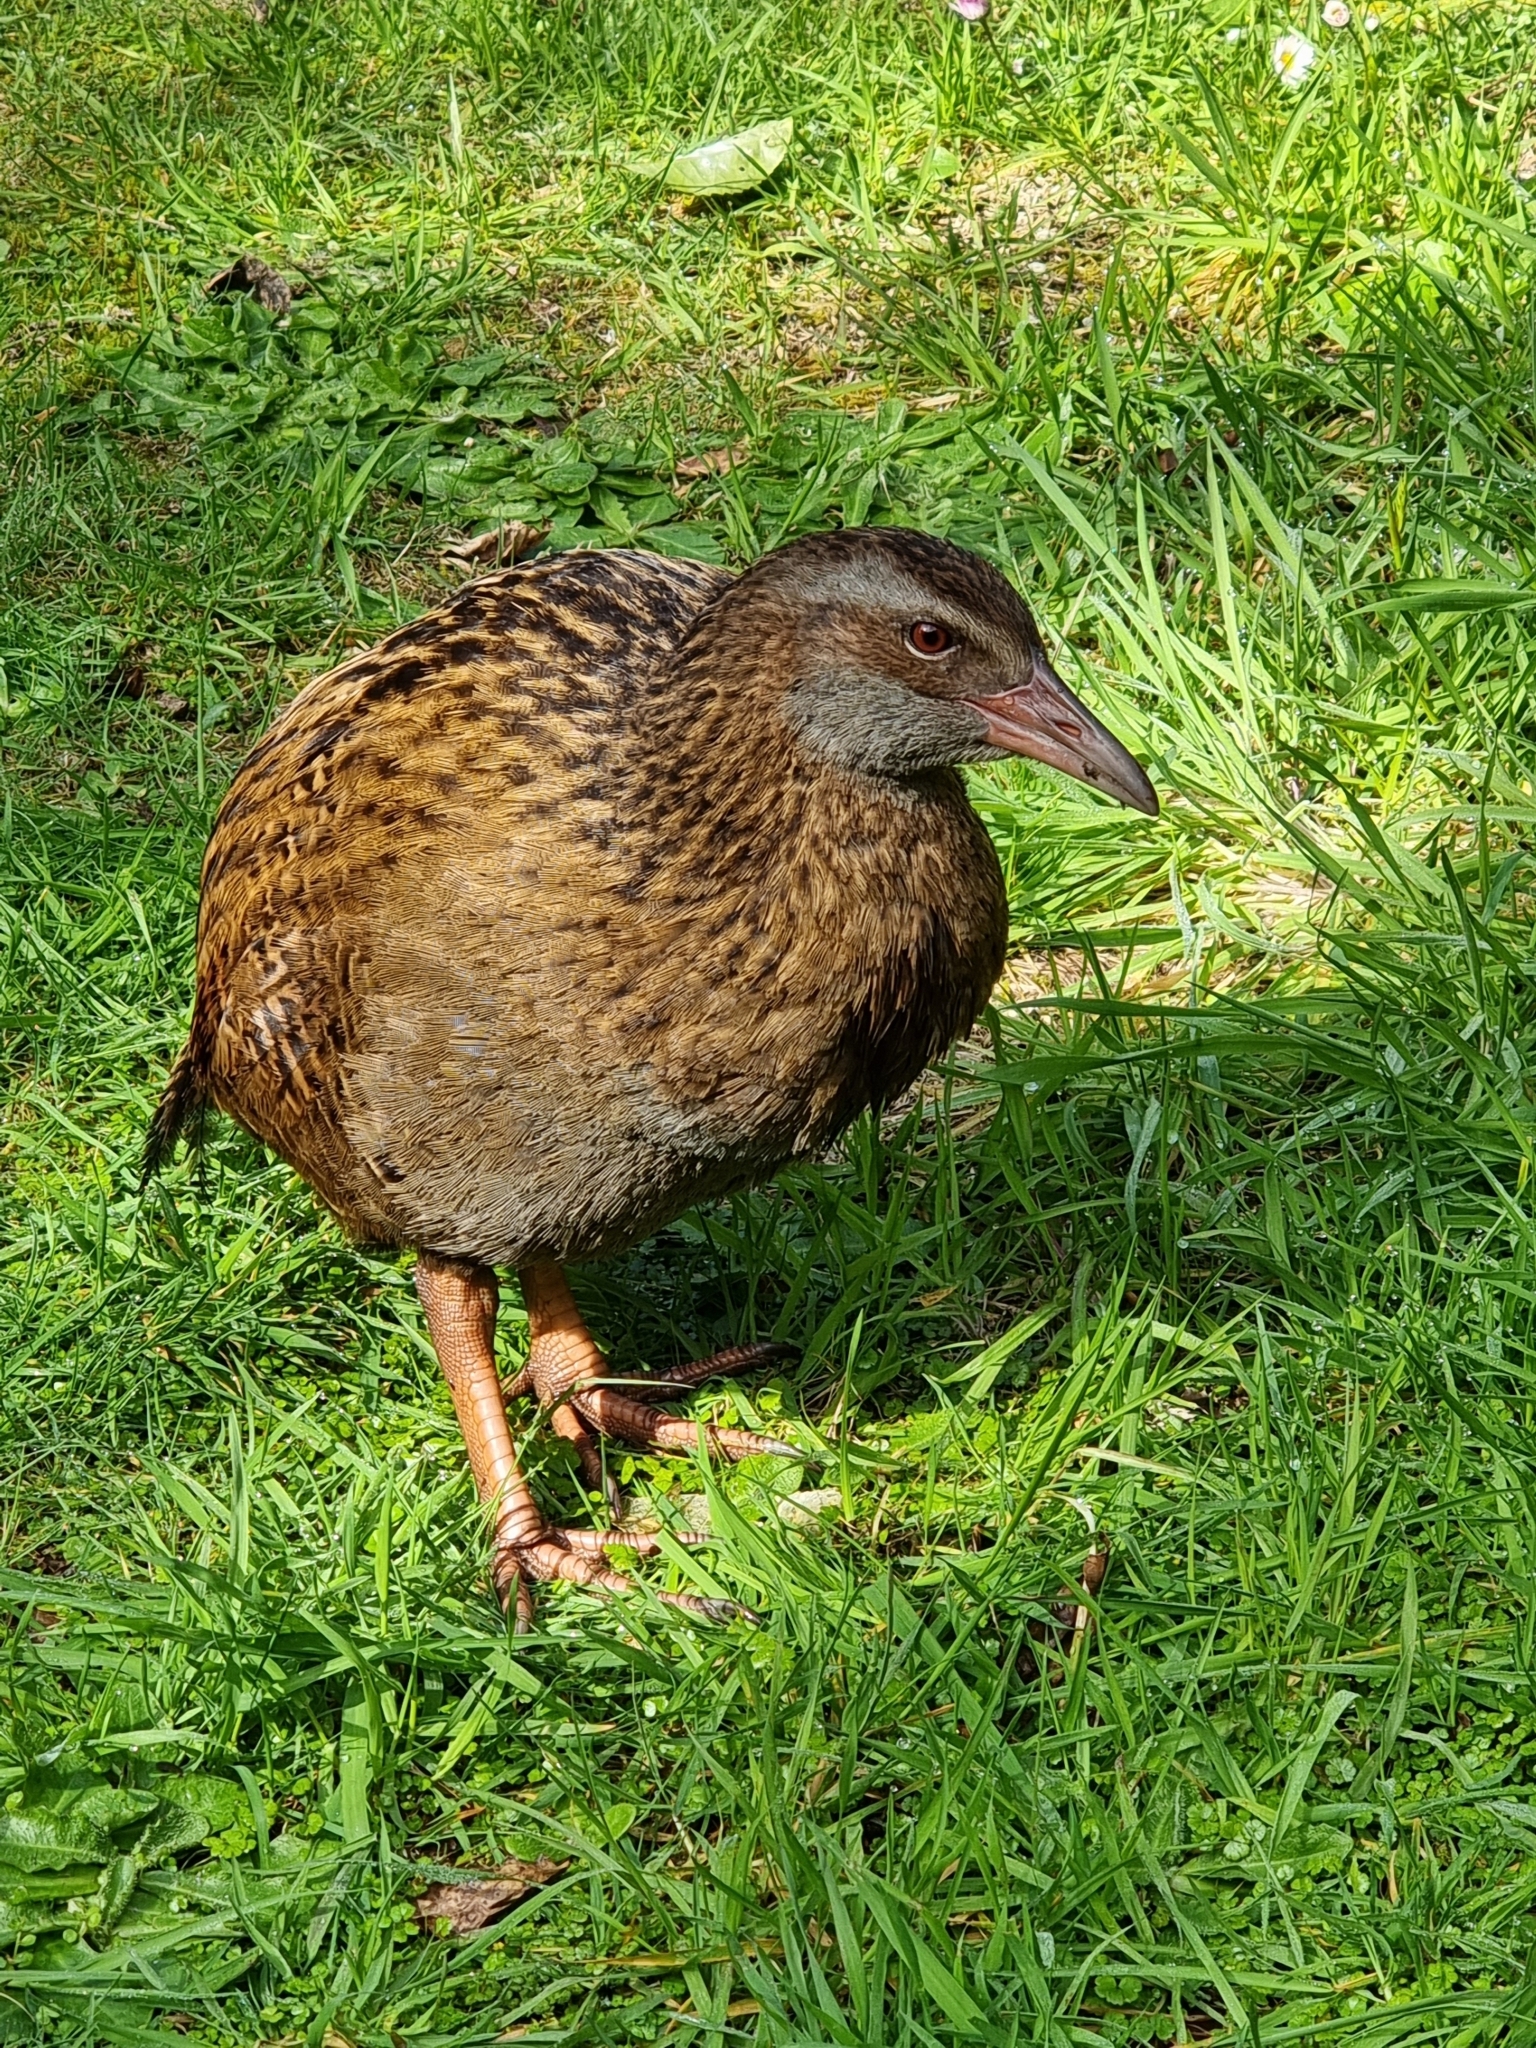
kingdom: Animalia
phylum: Chordata
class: Aves
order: Gruiformes
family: Rallidae
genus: Gallirallus
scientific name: Gallirallus australis
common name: Weka
